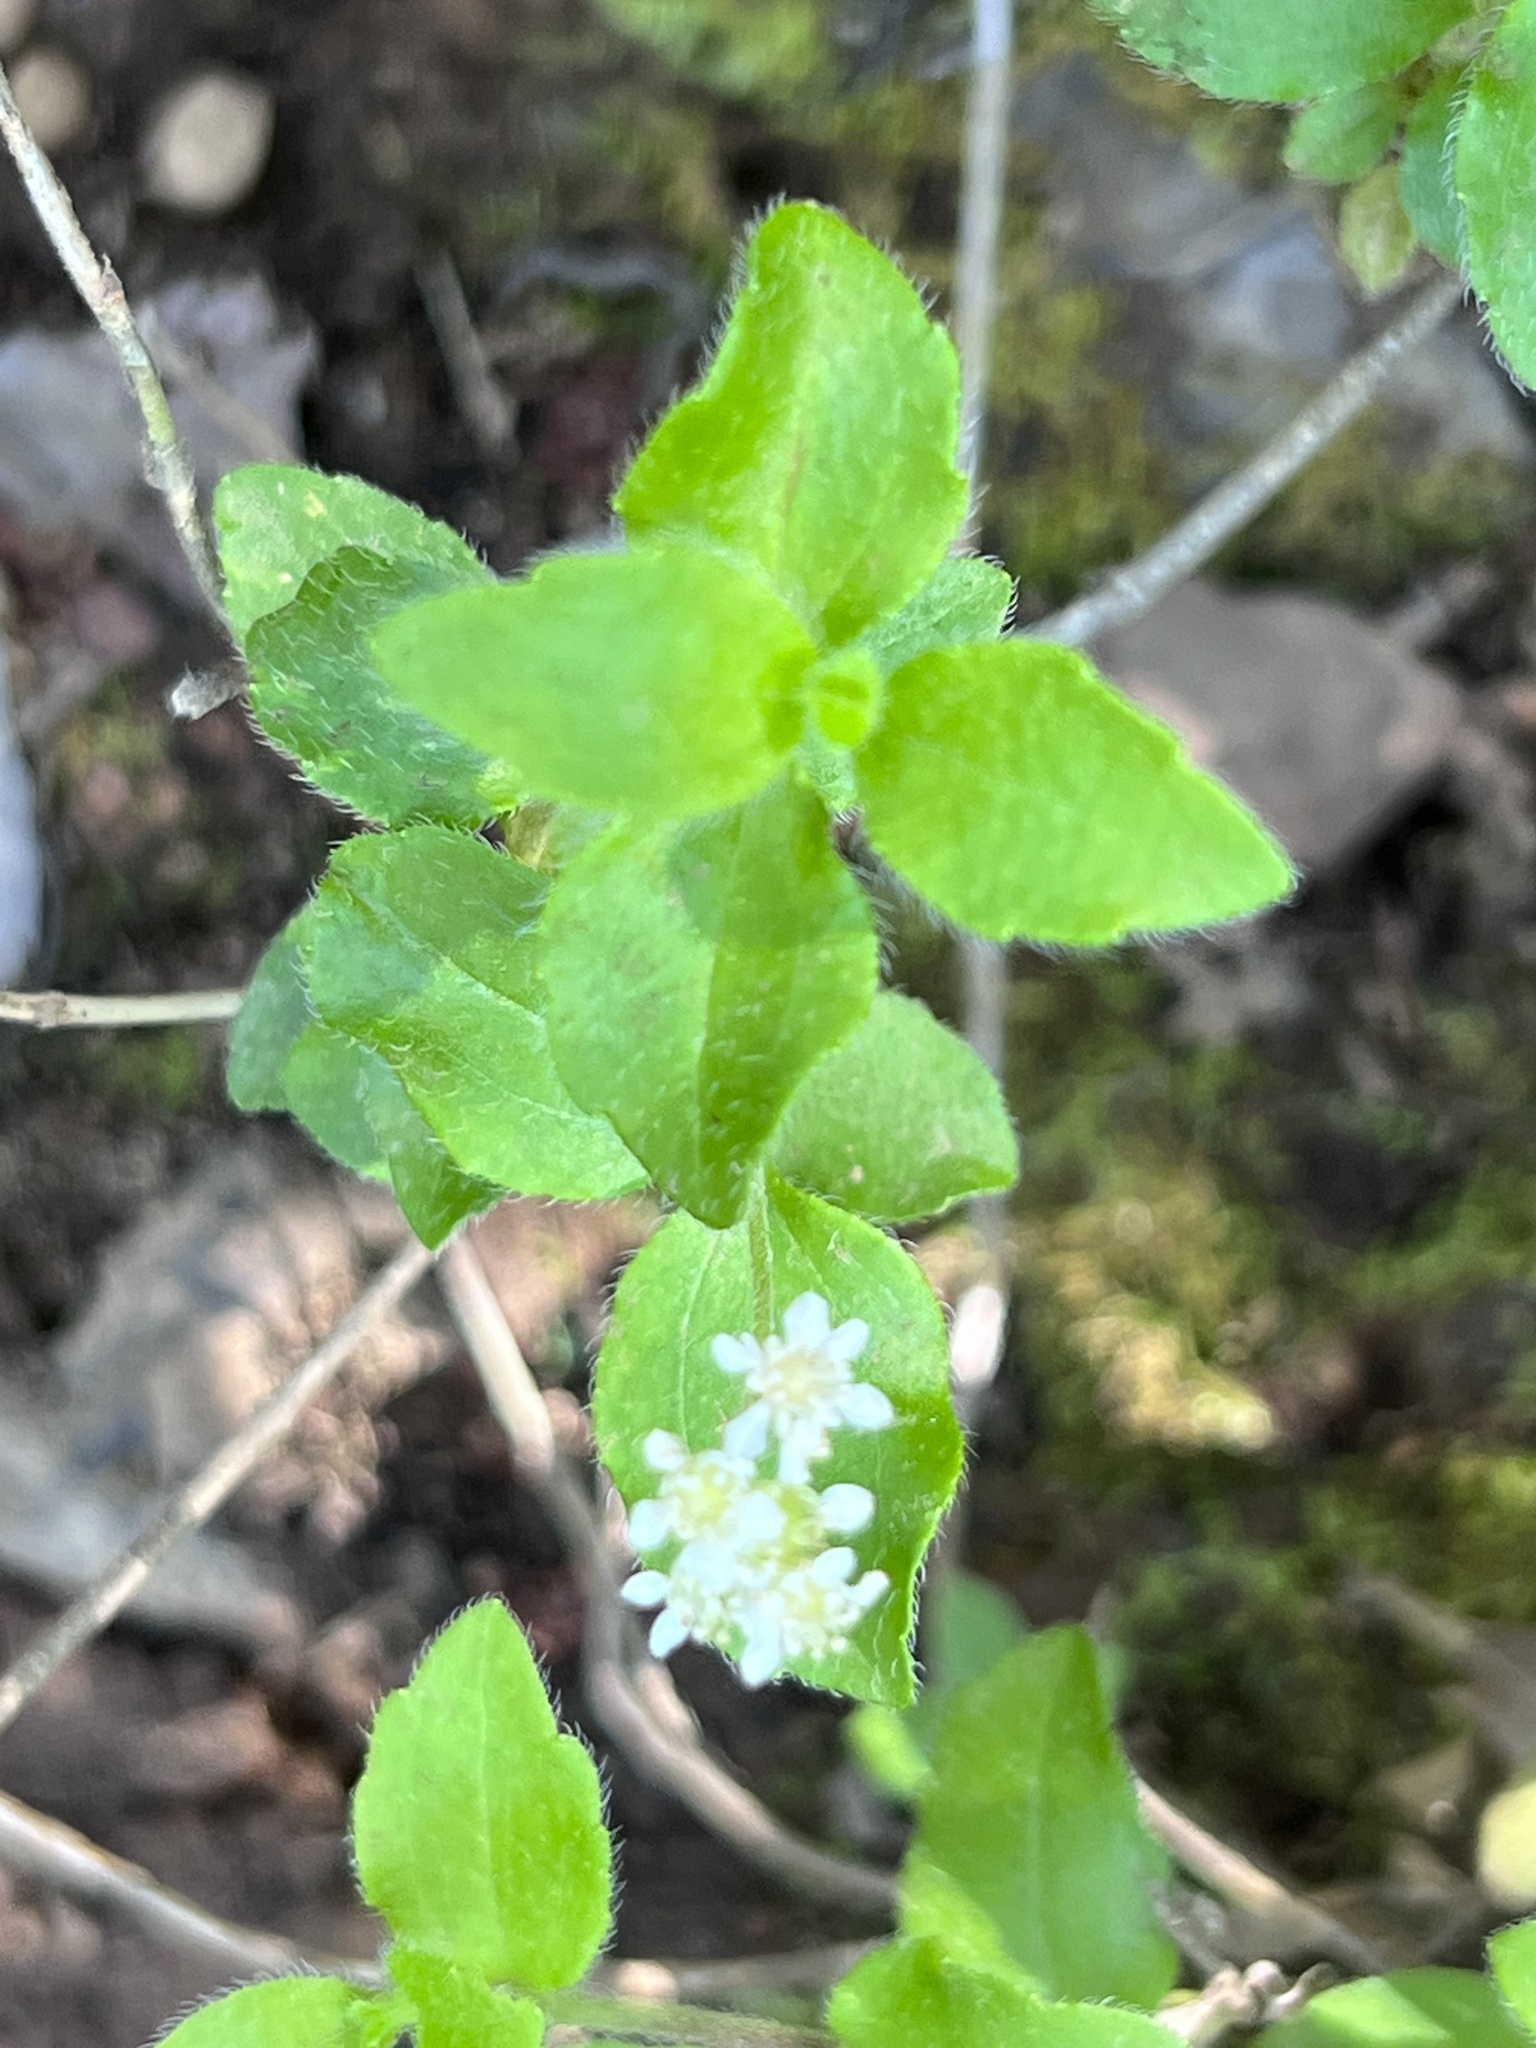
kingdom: Plantae
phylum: Tracheophyta
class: Magnoliopsida
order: Cornales
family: Hydrangeaceae
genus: Whipplea
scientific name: Whipplea modesta
